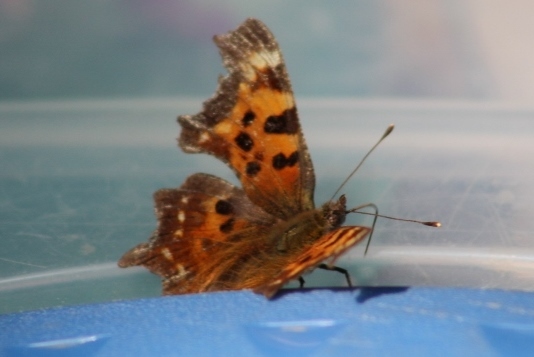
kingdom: Animalia
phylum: Arthropoda
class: Insecta
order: Lepidoptera
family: Nymphalidae
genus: Polygonia
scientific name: Polygonia faunus
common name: Green comma
